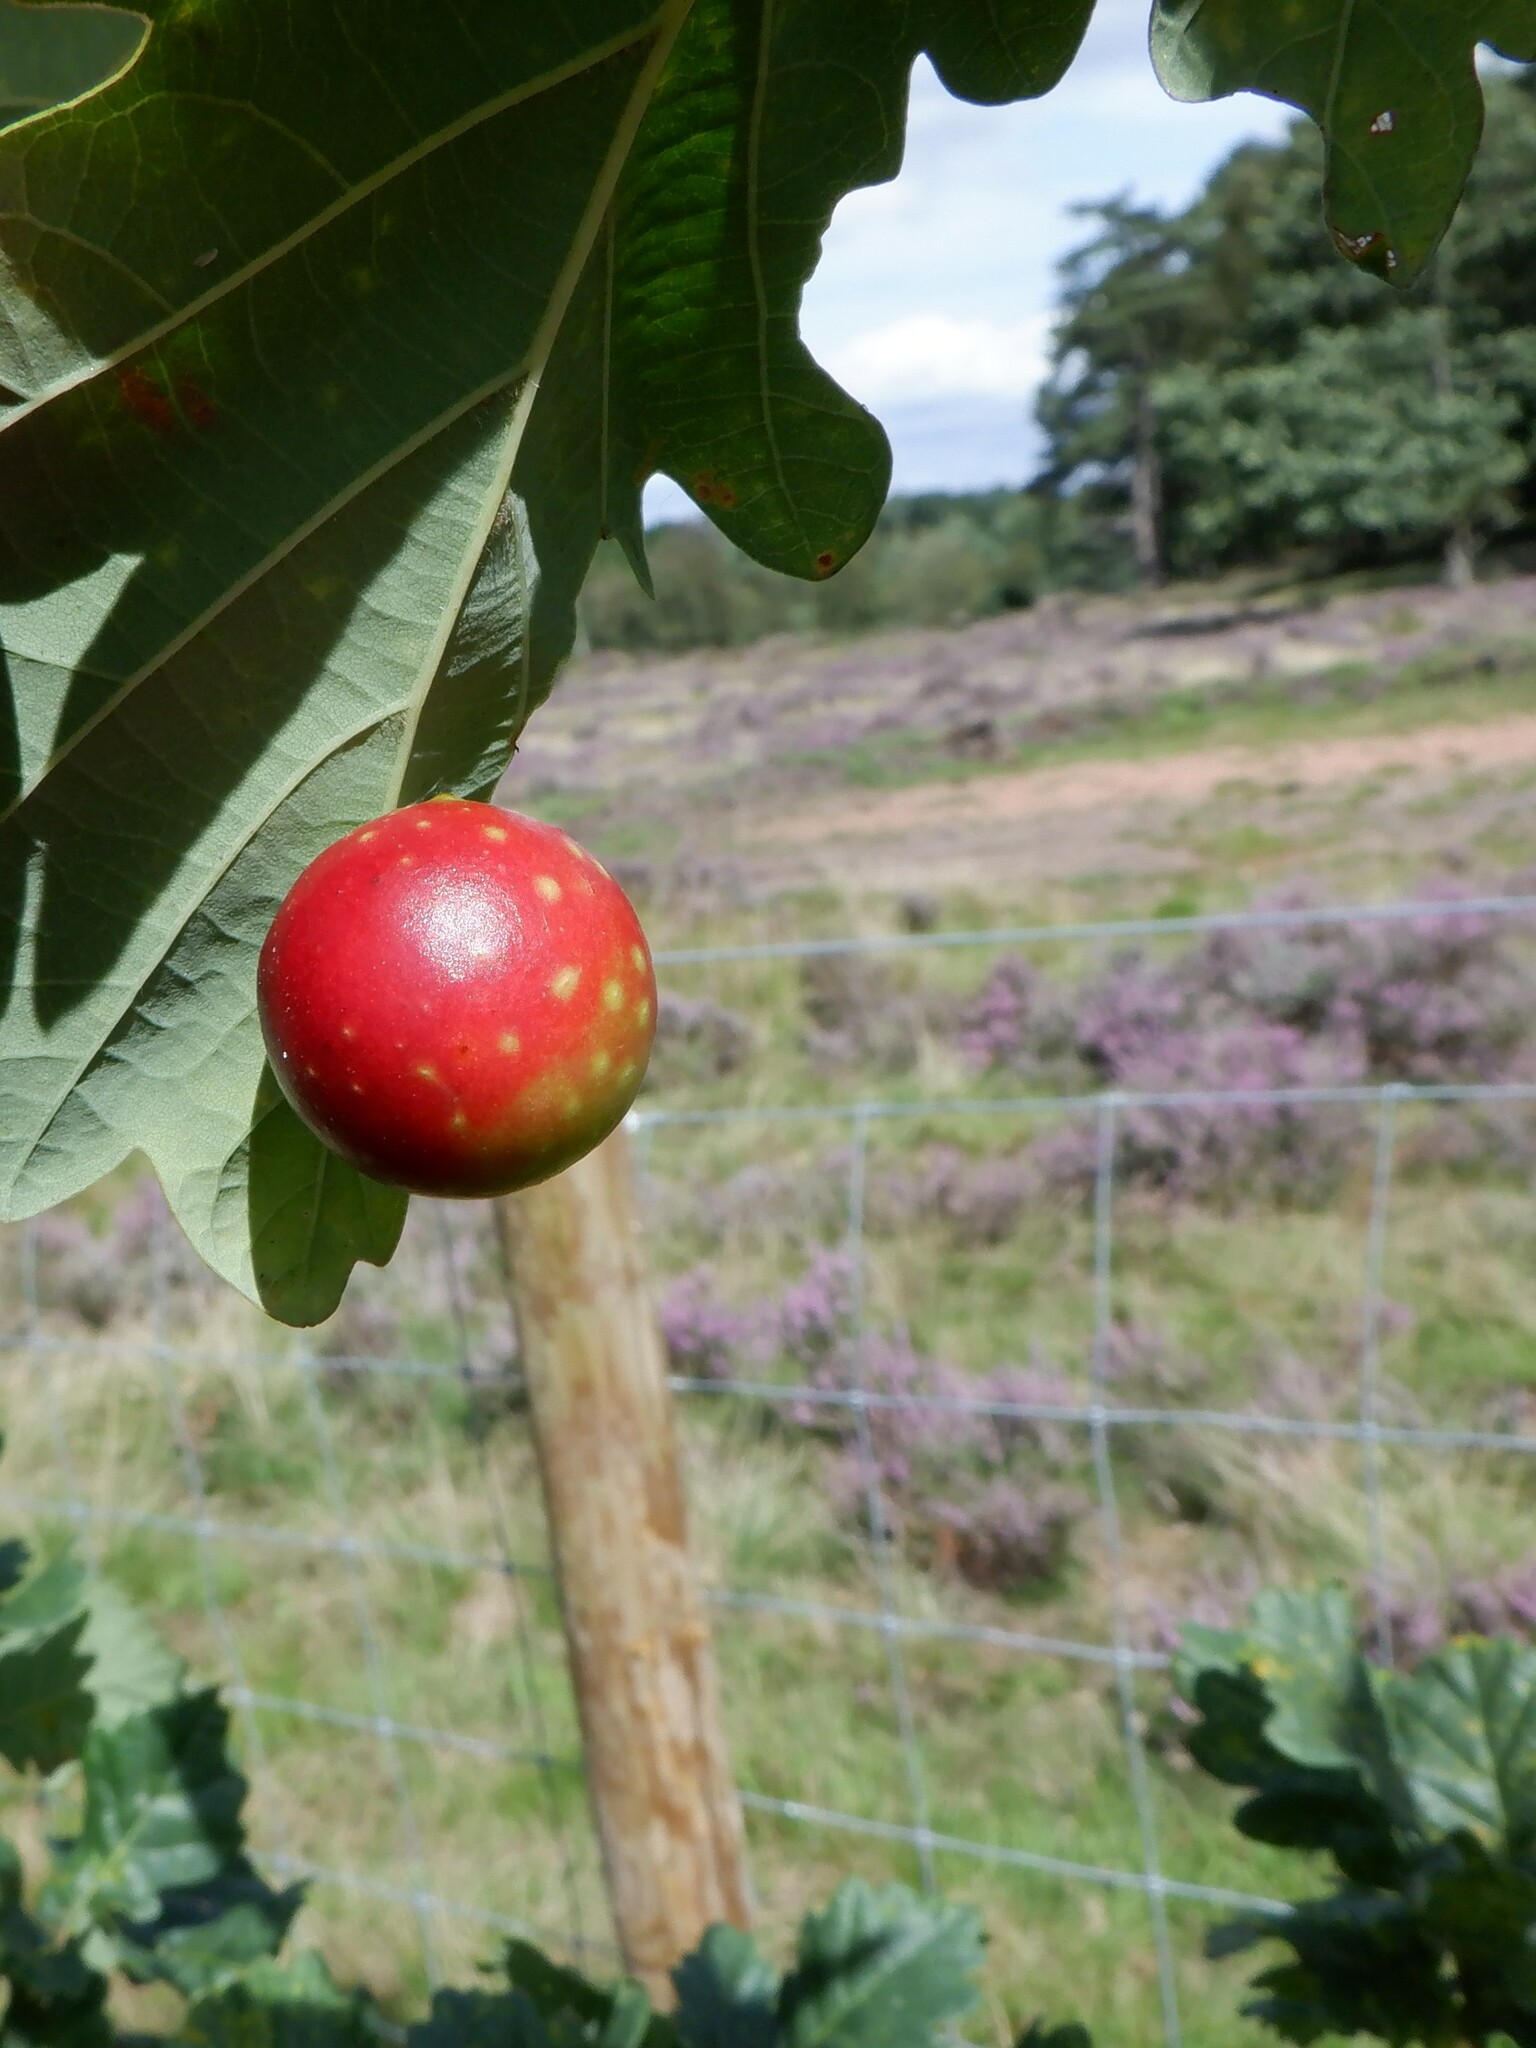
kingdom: Animalia
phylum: Arthropoda
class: Insecta
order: Hymenoptera
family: Cynipidae
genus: Cynips
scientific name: Cynips quercusfolii
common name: Cherry gall
